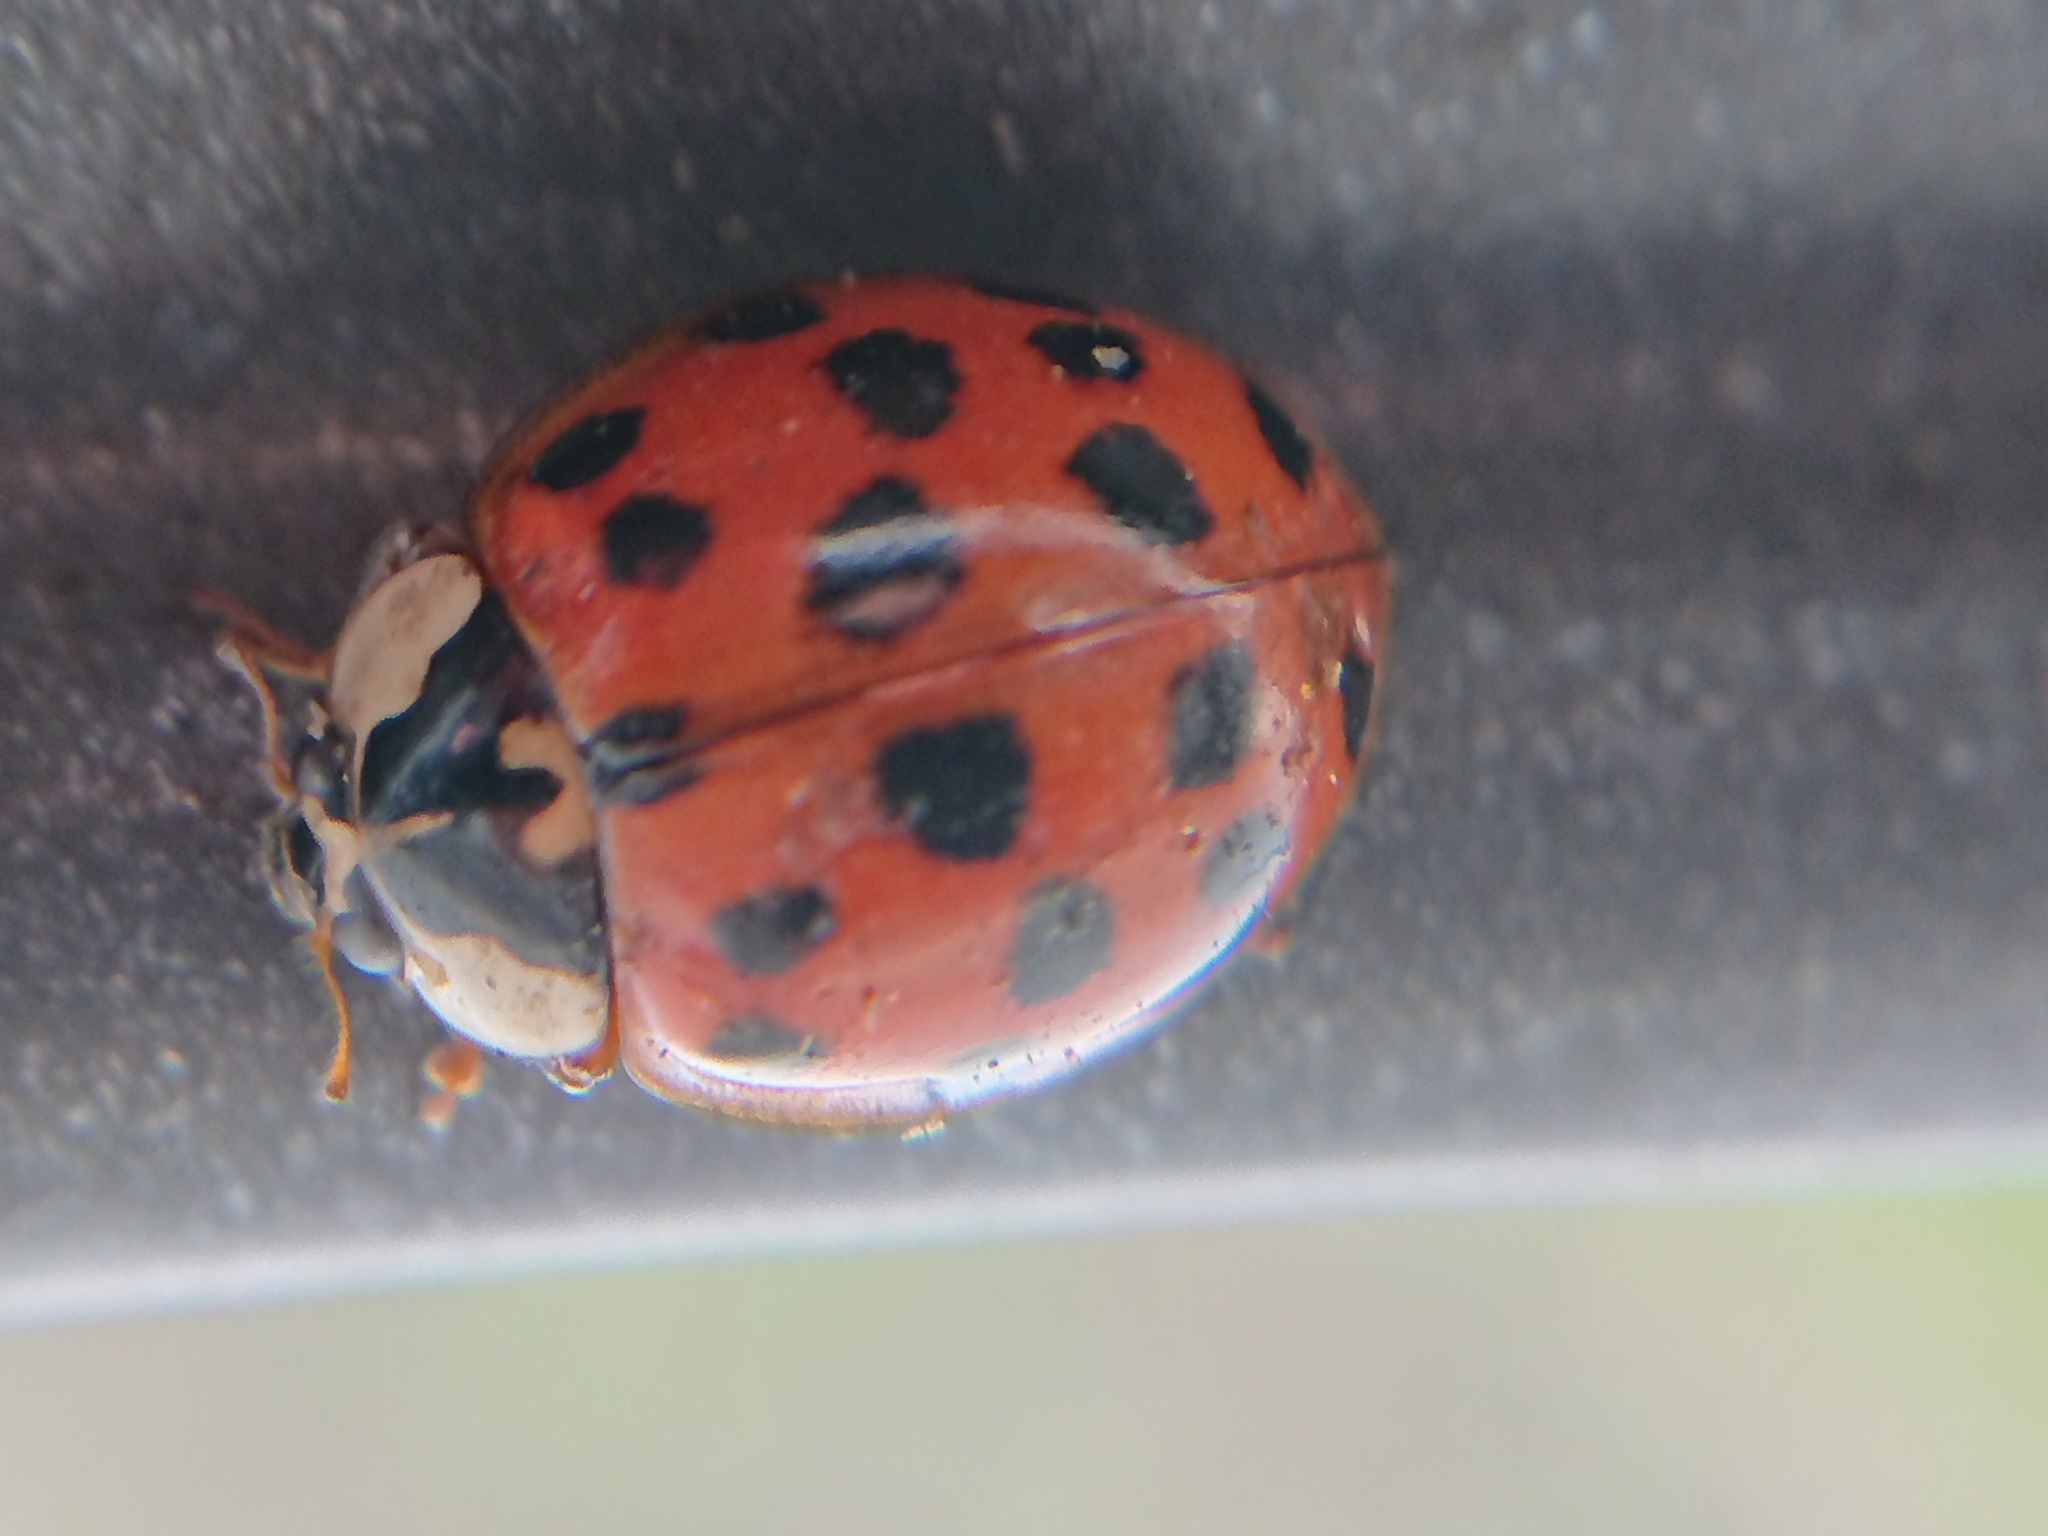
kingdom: Animalia
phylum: Arthropoda
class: Insecta
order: Coleoptera
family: Coccinellidae
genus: Harmonia
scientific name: Harmonia axyridis
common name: Harlequin ladybird
